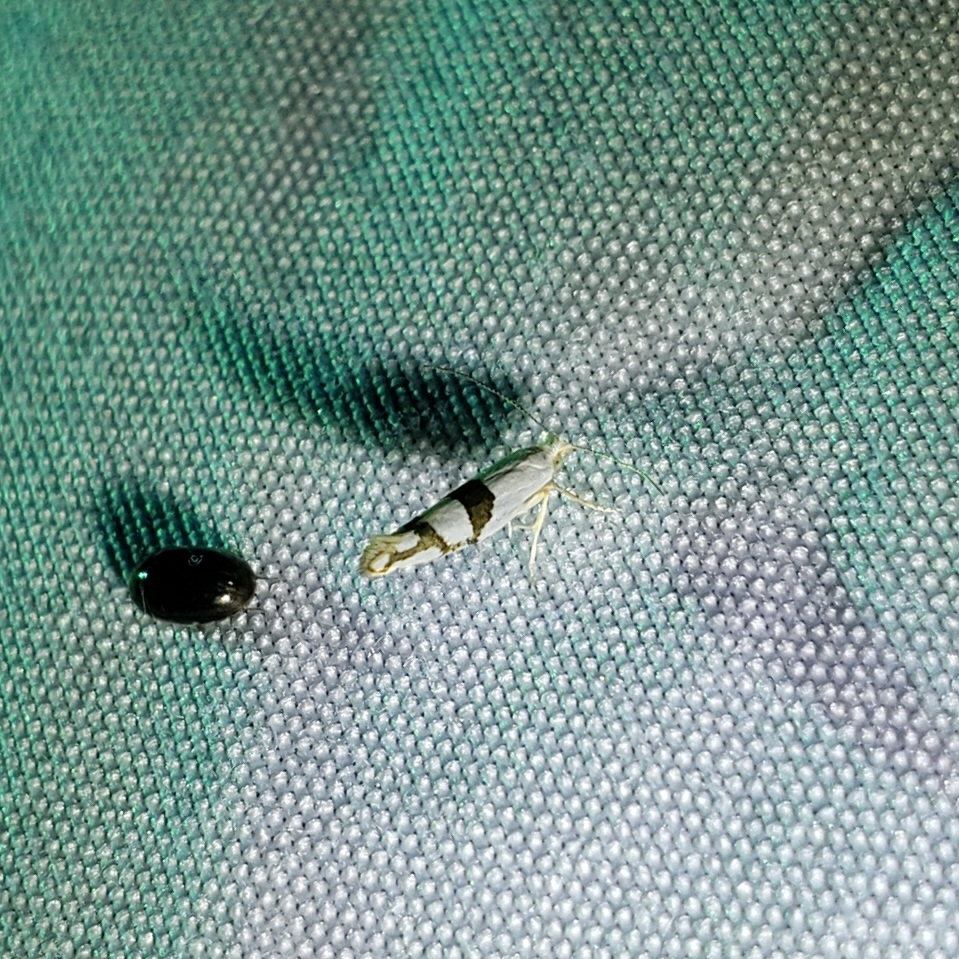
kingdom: Animalia
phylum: Arthropoda
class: Insecta
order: Lepidoptera
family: Argyresthiidae
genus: Argyresthia
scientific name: Argyresthia oreasella
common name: Cherry shoot borer moth
